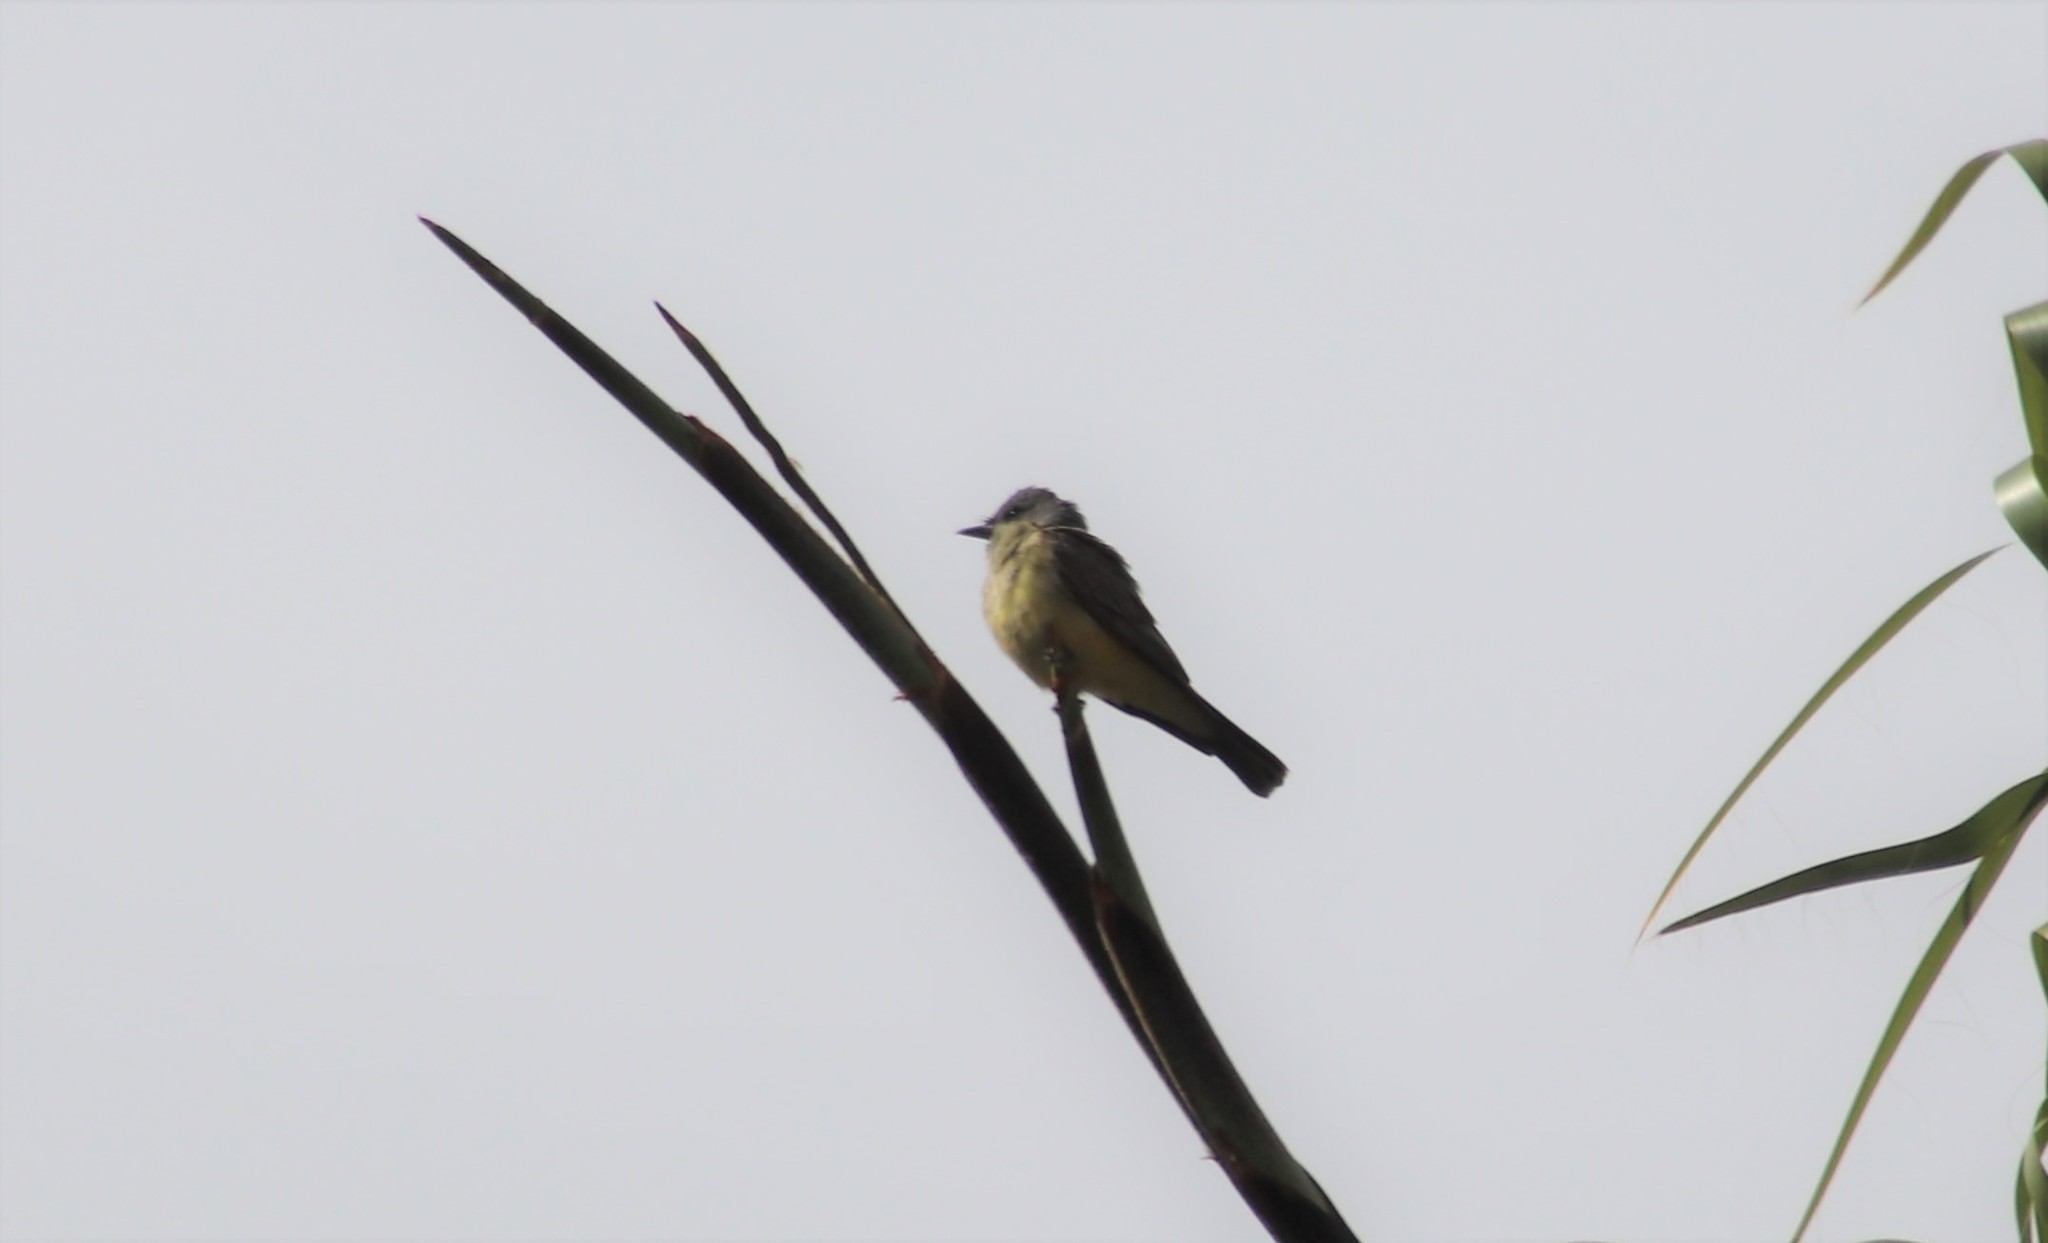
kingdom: Animalia
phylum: Chordata
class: Aves
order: Passeriformes
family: Tyrannidae
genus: Tyrannus
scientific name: Tyrannus vociferans
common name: Cassin's kingbird
